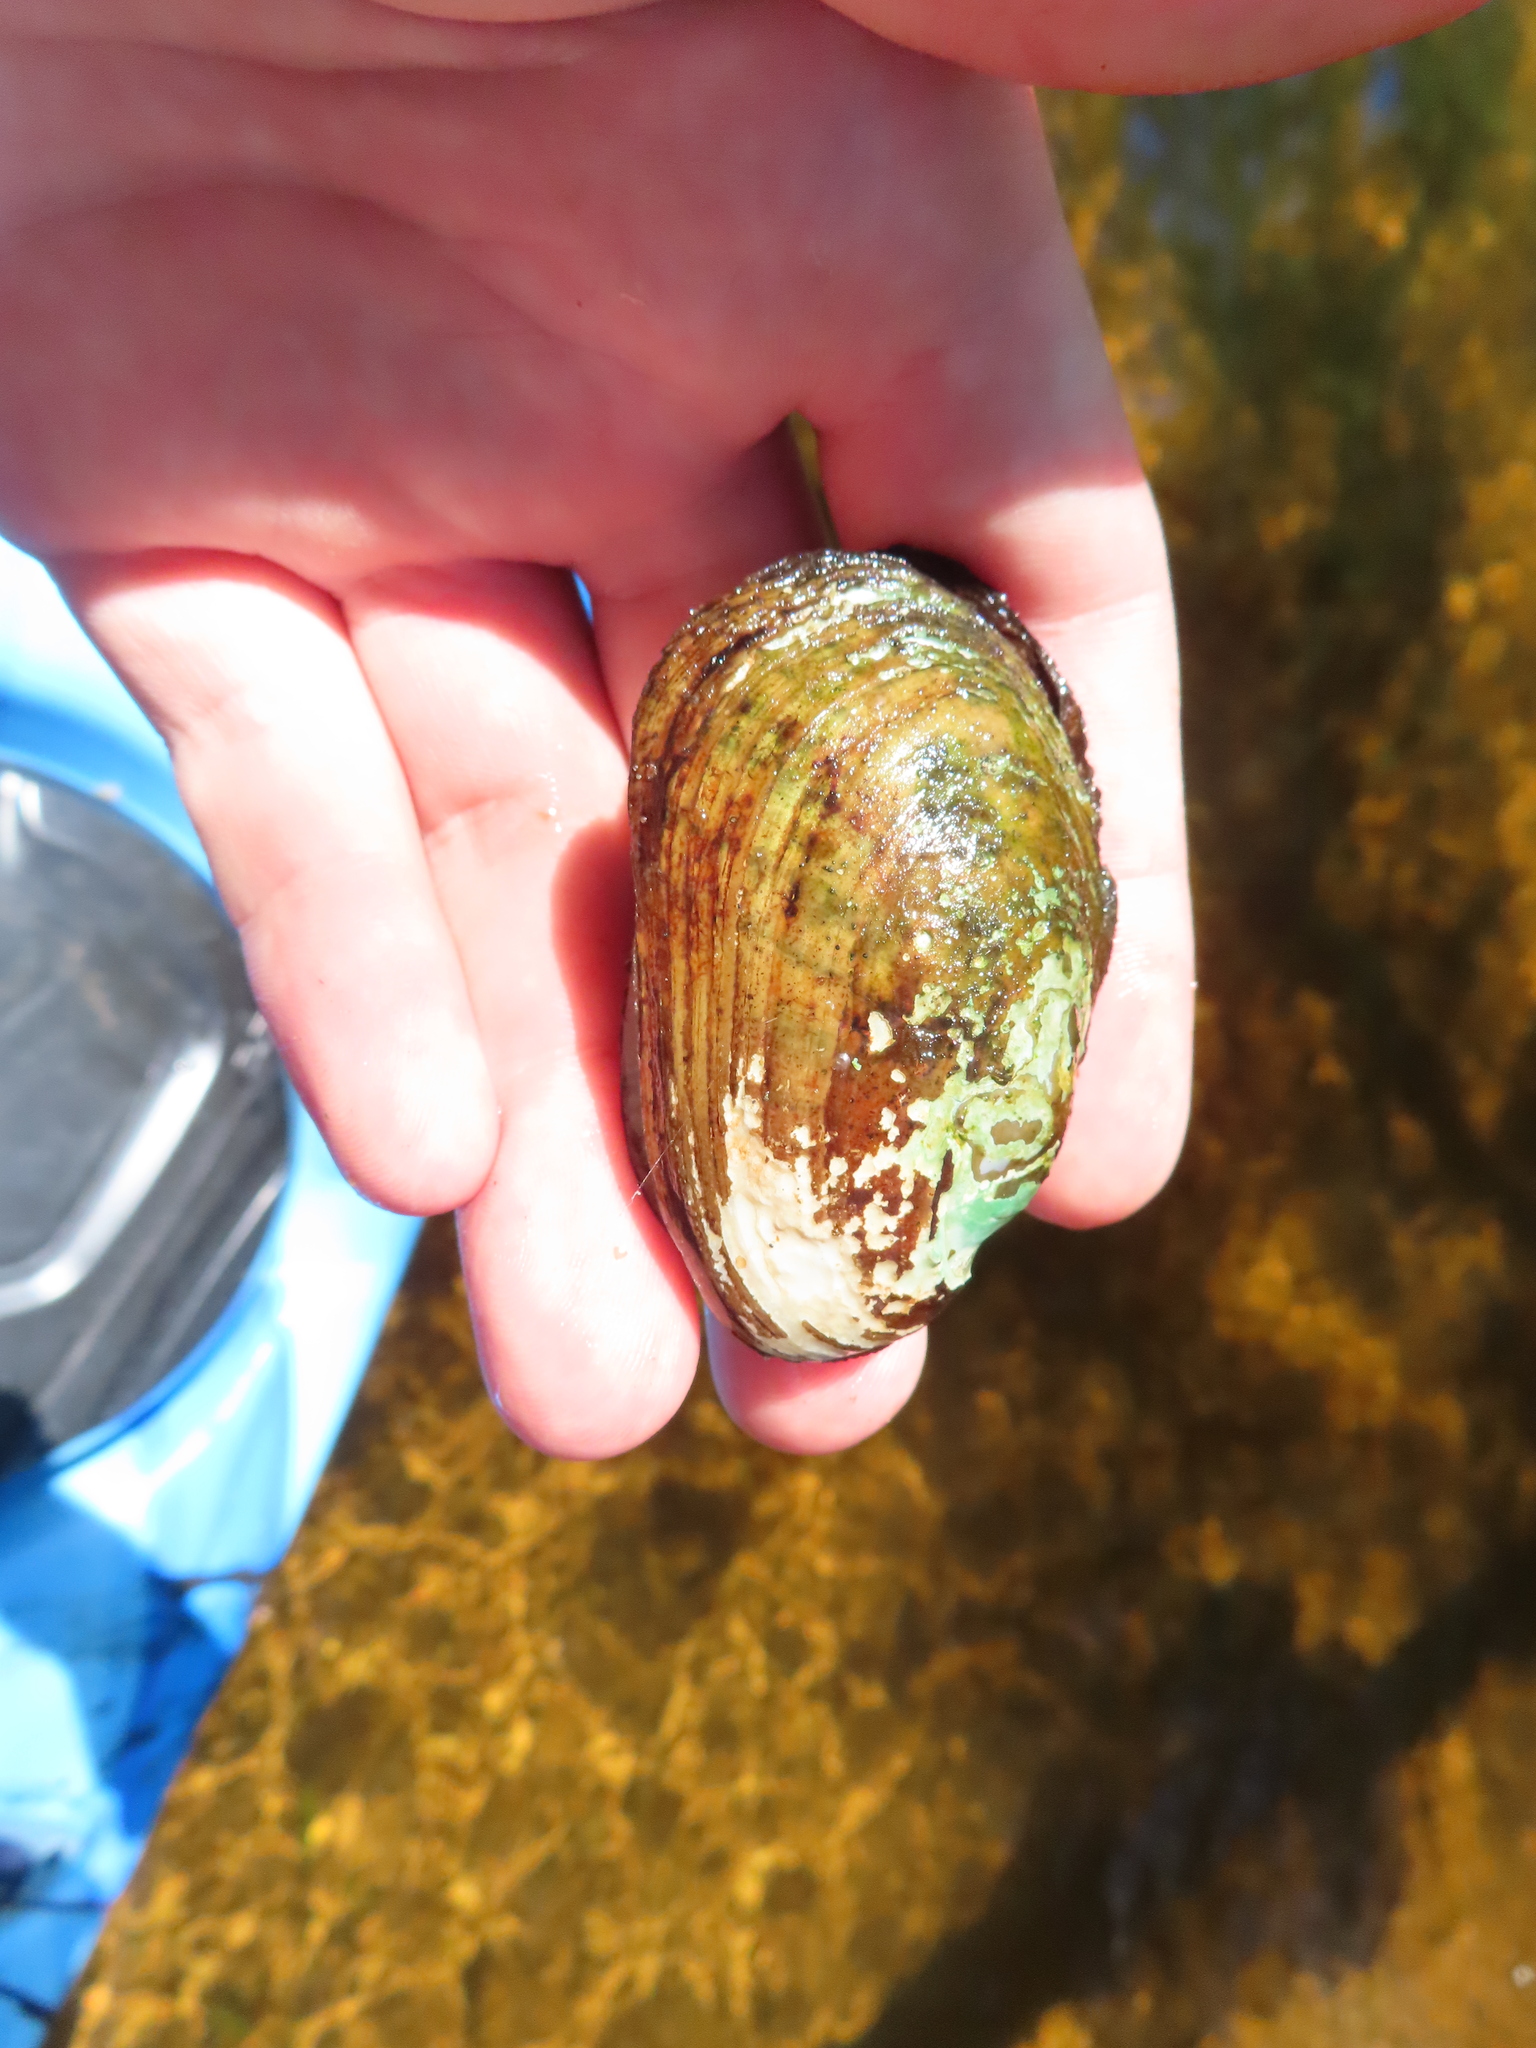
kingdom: Animalia
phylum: Mollusca
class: Bivalvia
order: Unionida
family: Unionidae
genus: Lampsilis
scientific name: Lampsilis siliquoidea
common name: Fatmucket
